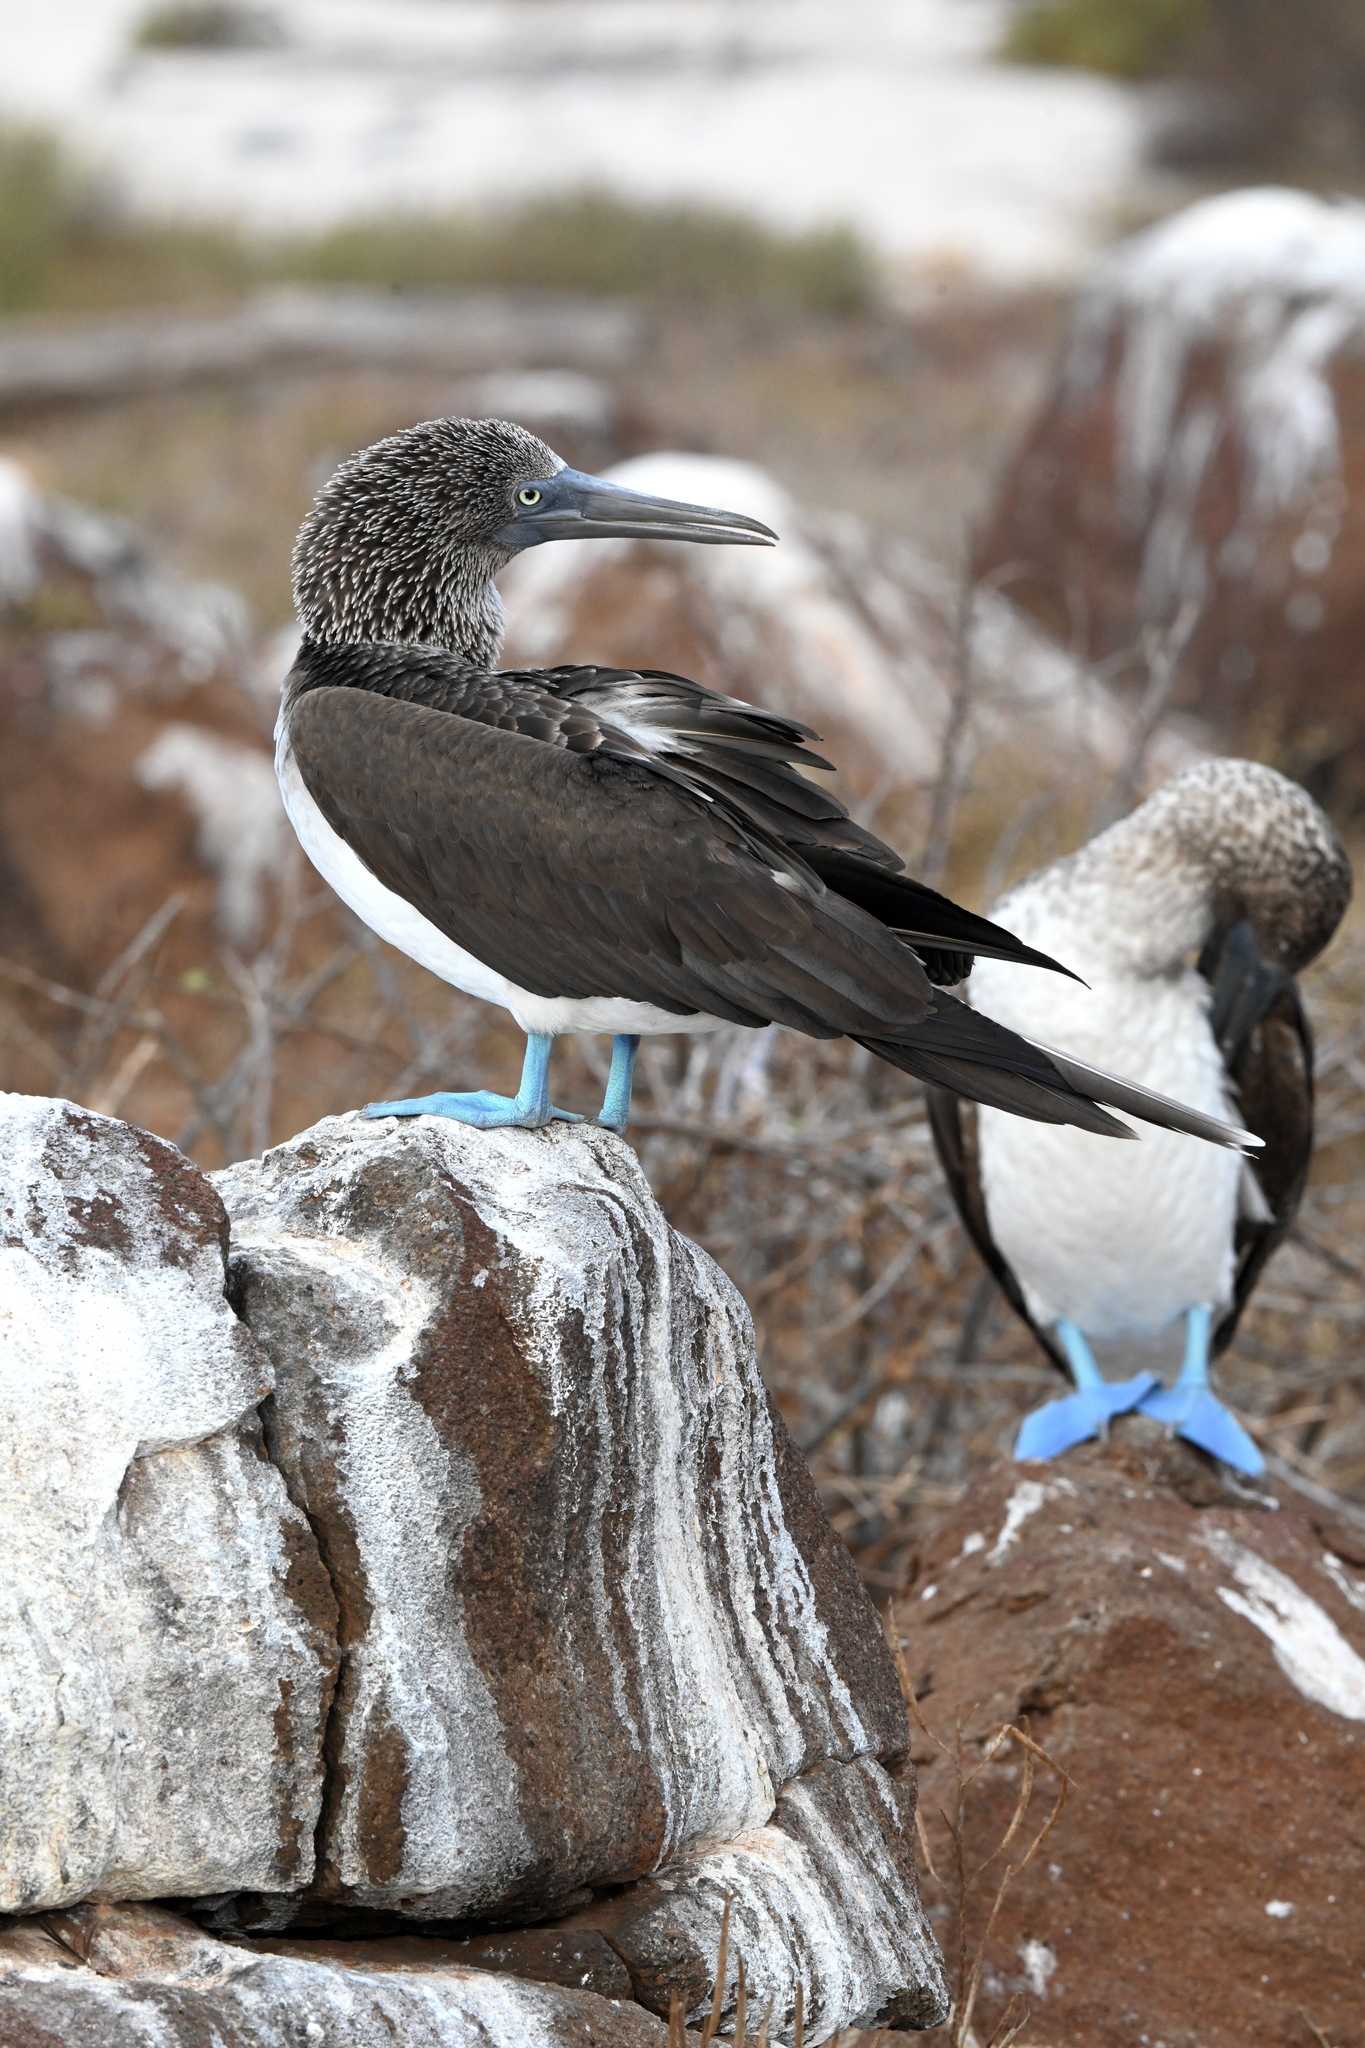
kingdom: Animalia
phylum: Chordata
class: Aves
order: Suliformes
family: Sulidae
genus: Sula
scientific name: Sula nebouxii
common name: Blue-footed booby
